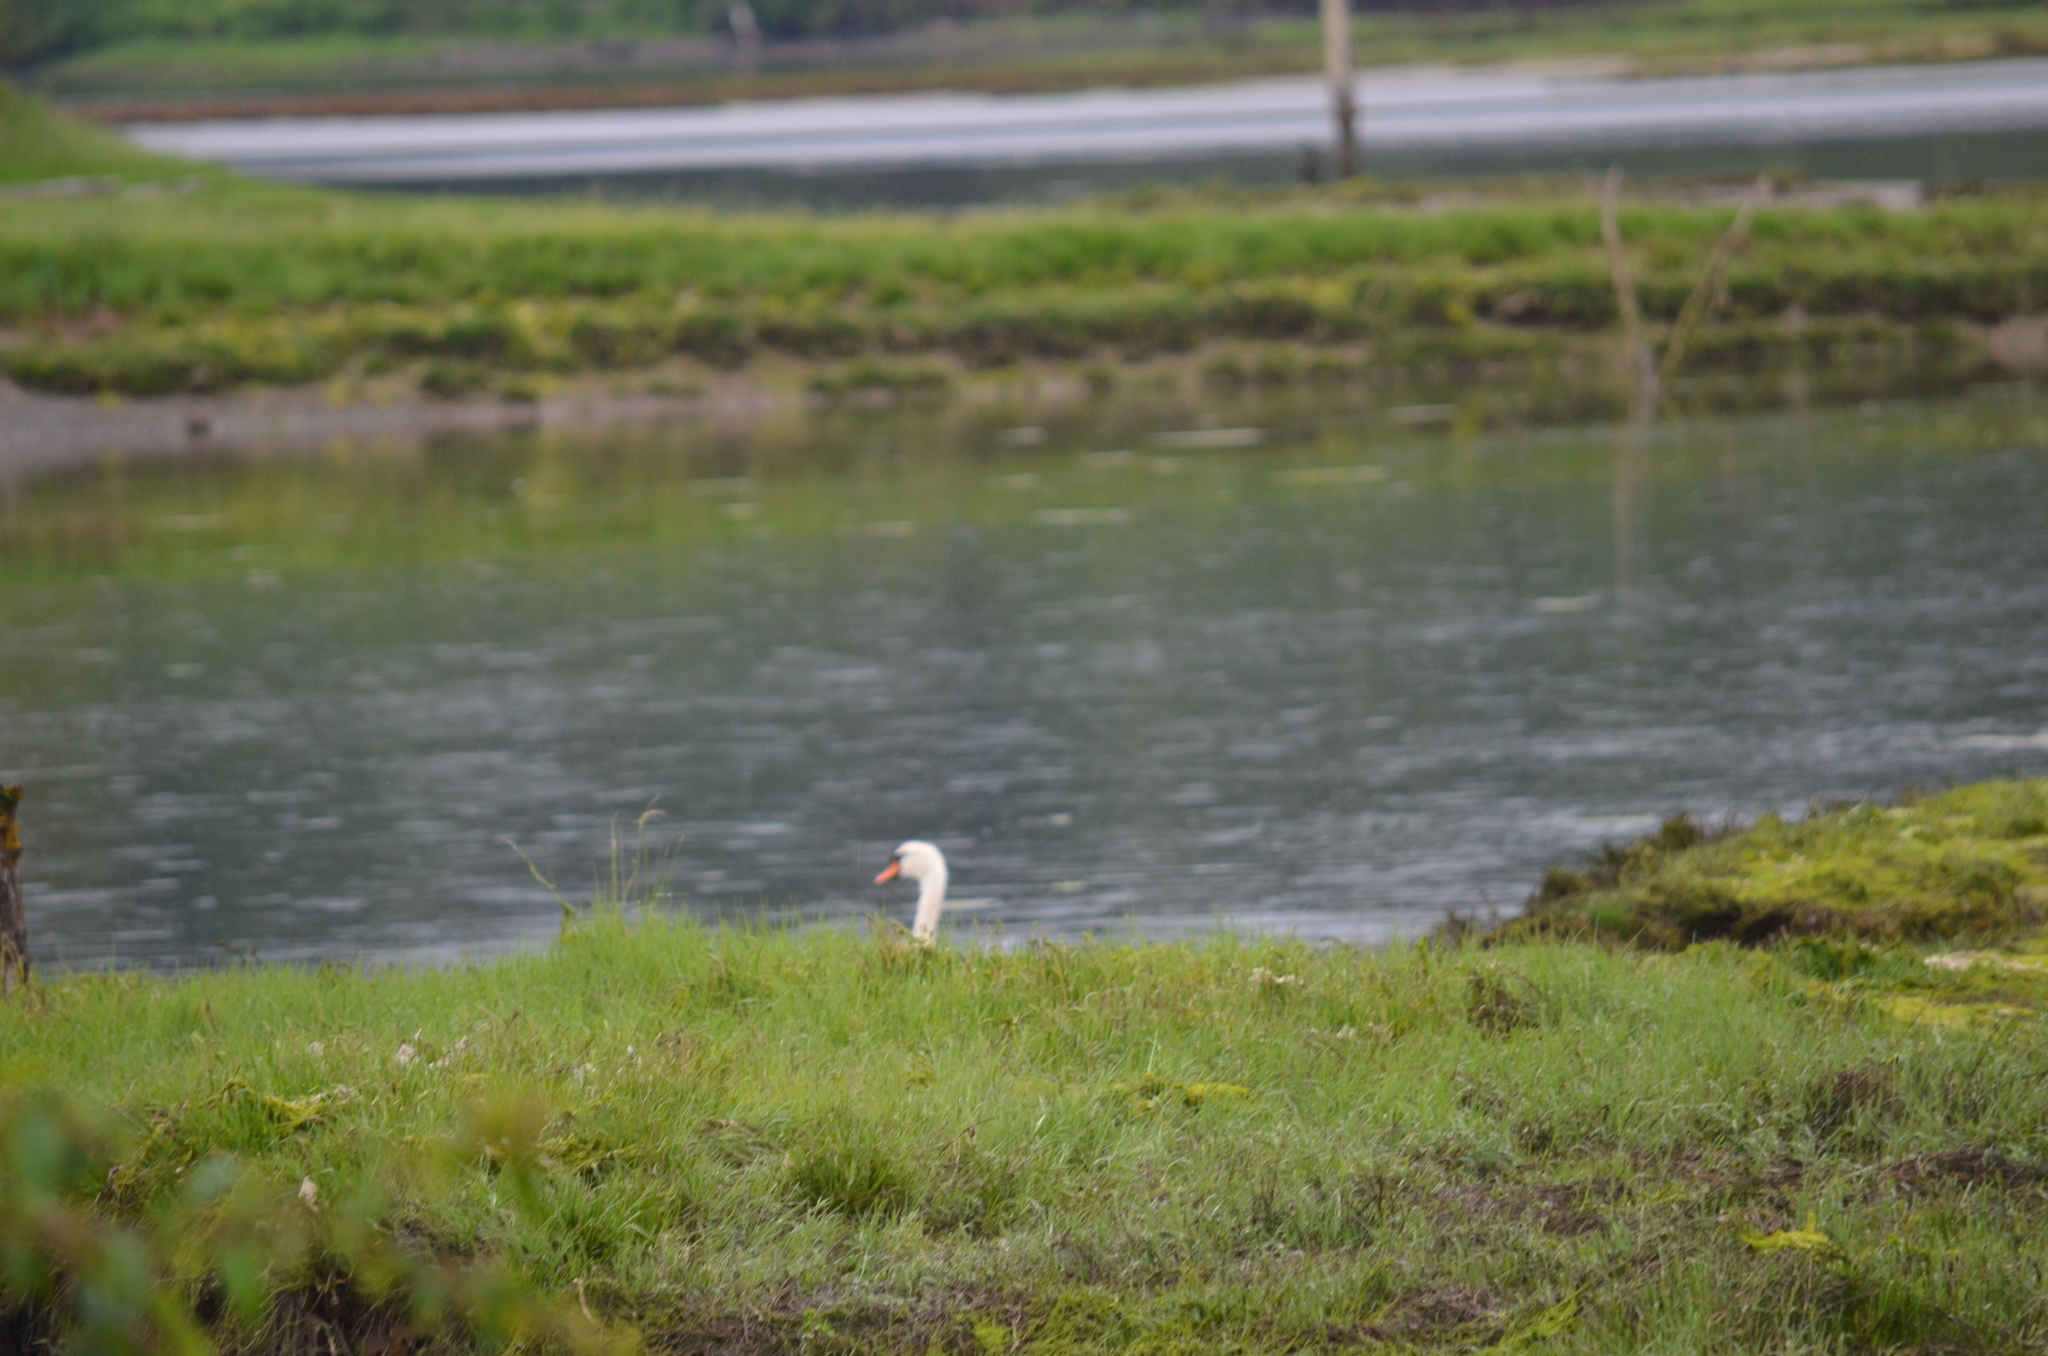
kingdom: Animalia
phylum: Chordata
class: Aves
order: Anseriformes
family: Anatidae
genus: Cygnus
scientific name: Cygnus olor
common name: Mute swan
